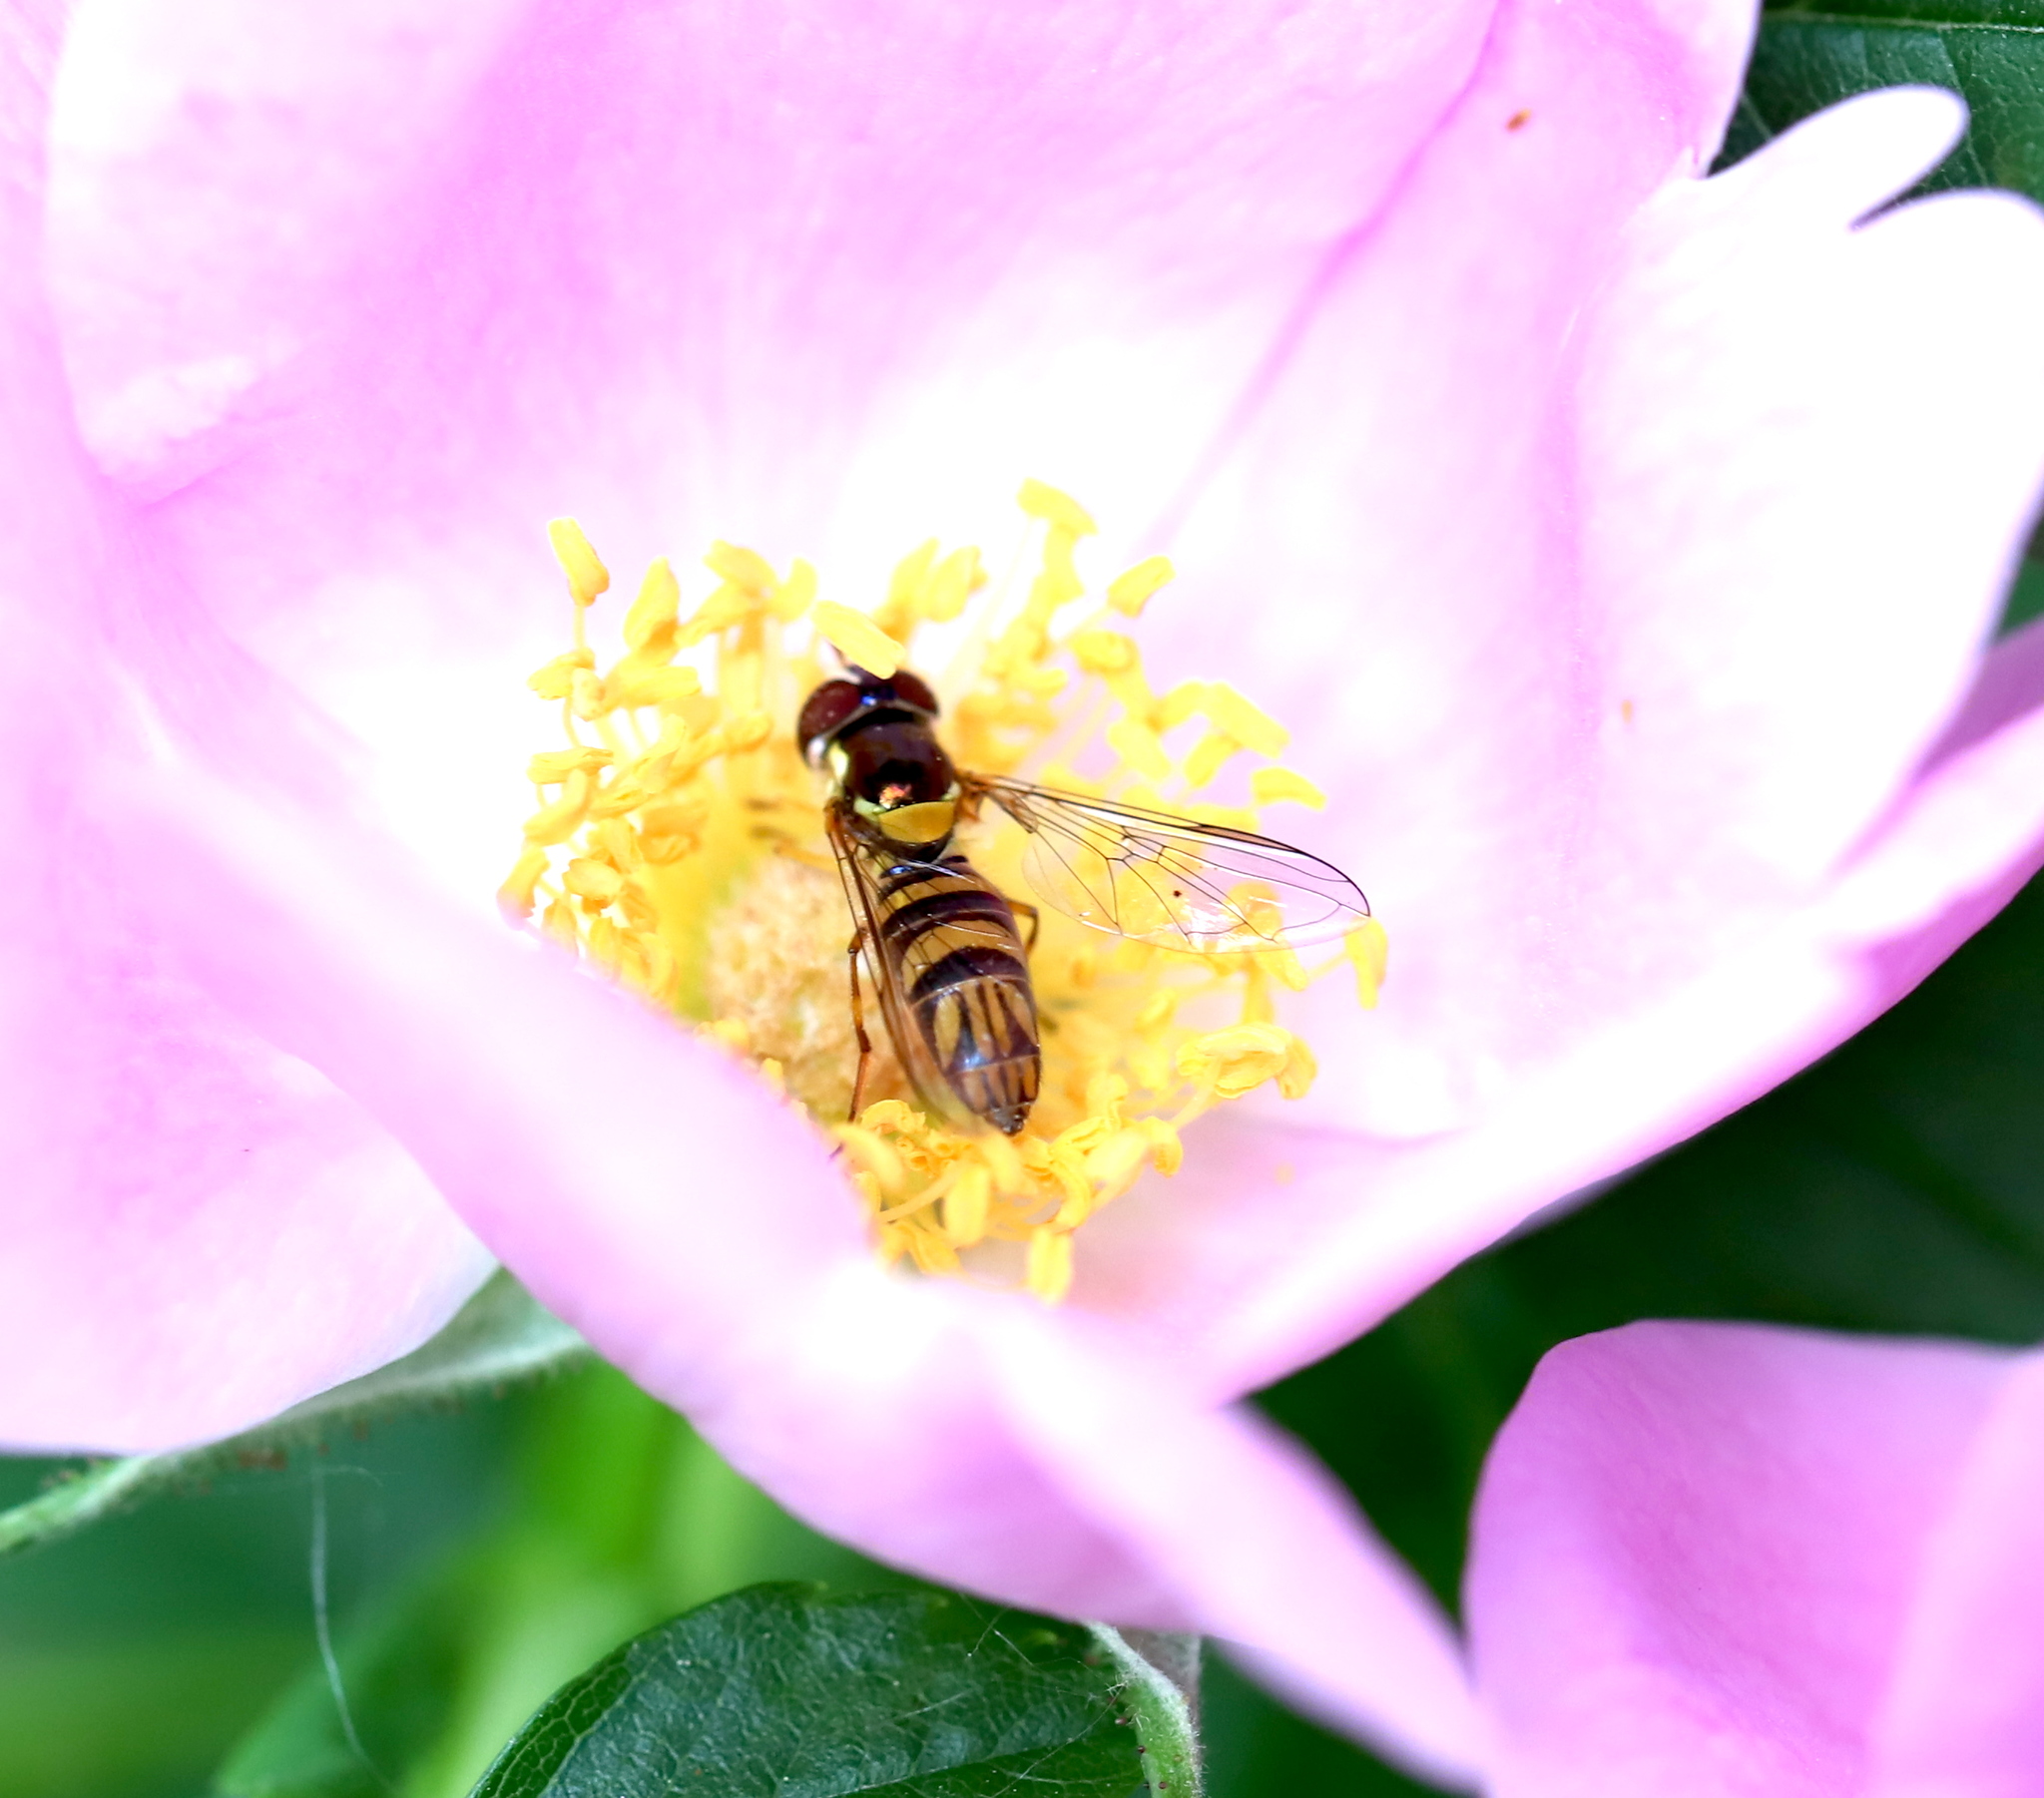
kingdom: Animalia
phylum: Arthropoda
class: Insecta
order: Diptera
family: Syrphidae
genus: Allograpta
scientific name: Allograpta obliqua
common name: Common oblique syrphid
